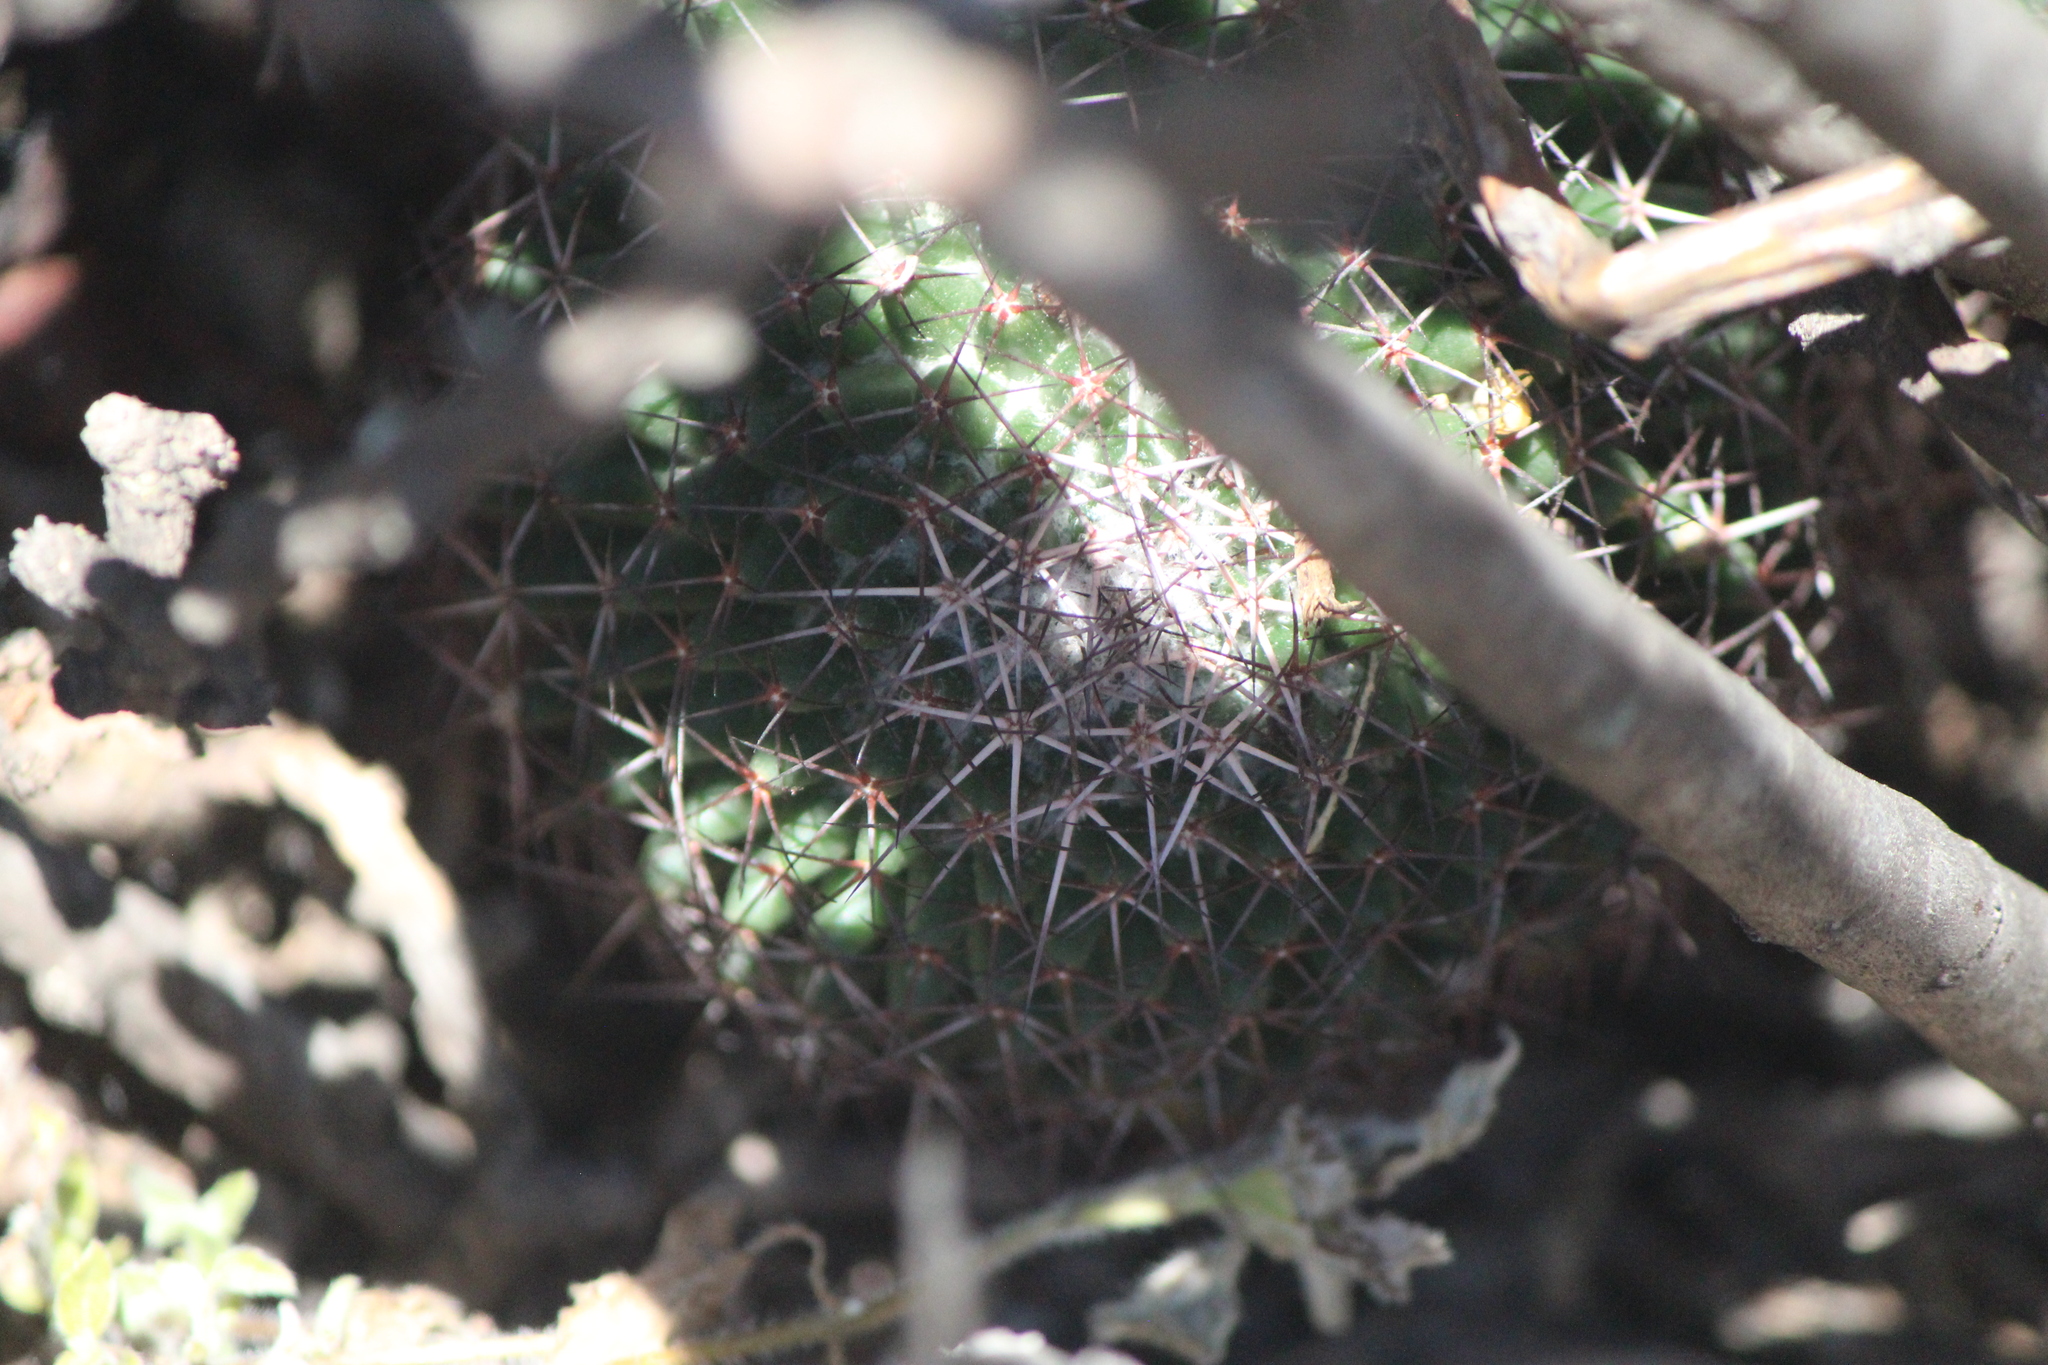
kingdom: Plantae
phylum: Tracheophyta
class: Magnoliopsida
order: Caryophyllales
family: Cactaceae
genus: Mammillaria
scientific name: Mammillaria polythele
